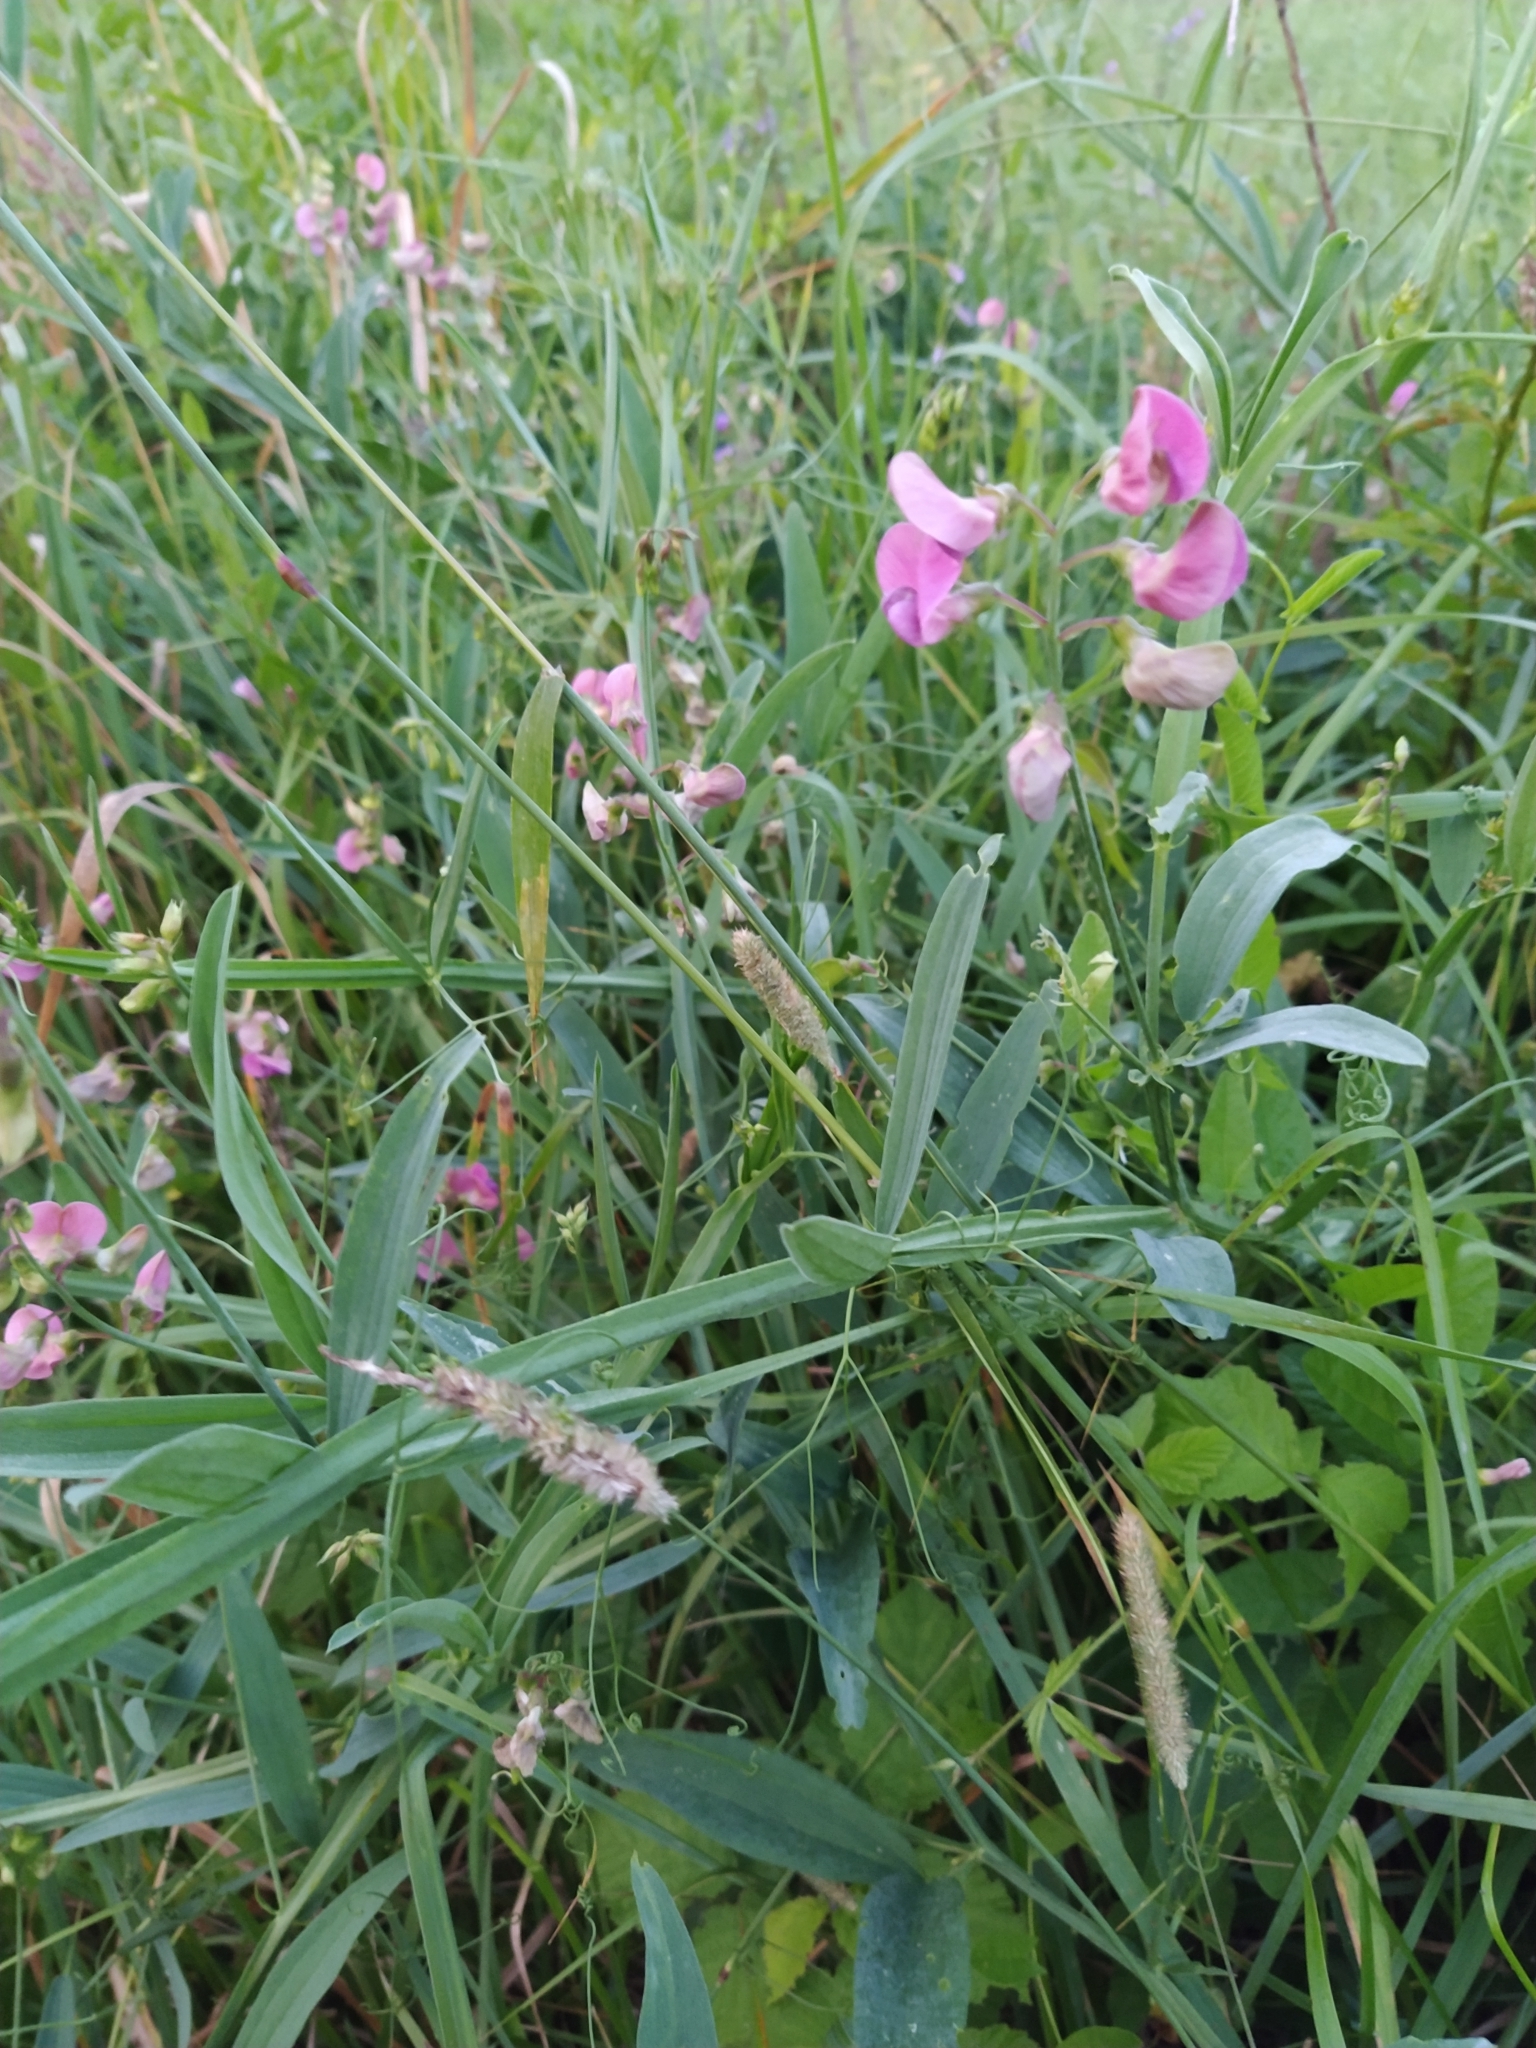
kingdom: Plantae
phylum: Tracheophyta
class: Magnoliopsida
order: Fabales
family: Fabaceae
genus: Lathyrus
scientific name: Lathyrus sylvestris
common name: Flat pea
